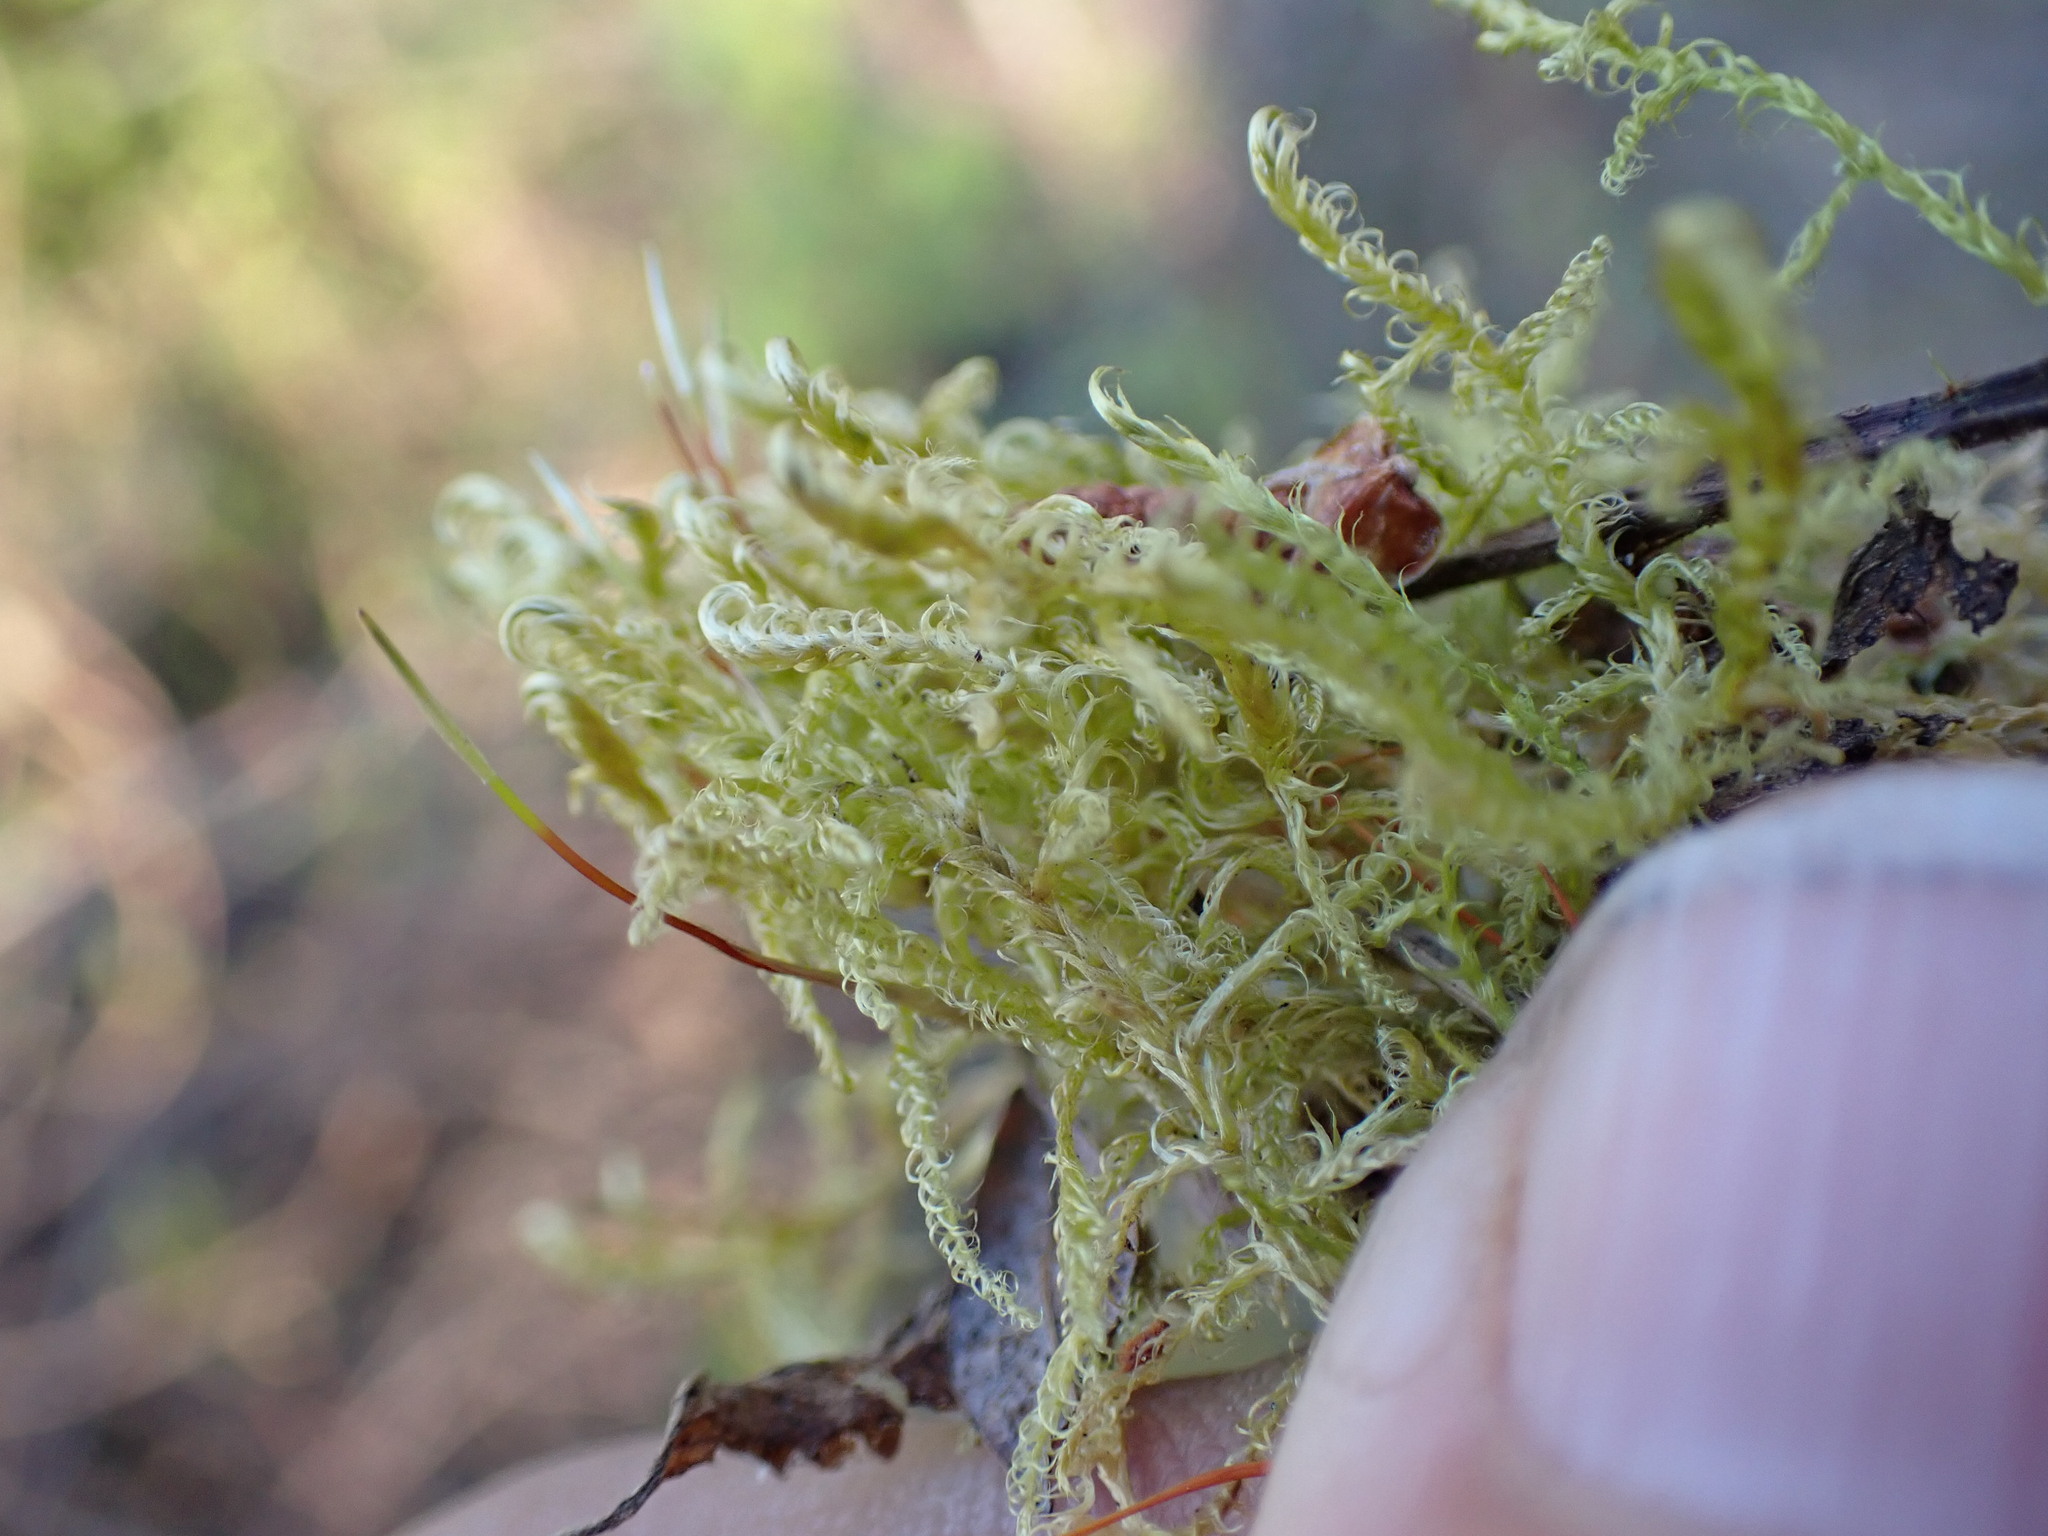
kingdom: Plantae
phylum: Bryophyta
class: Bryopsida
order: Hypnales
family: Scorpidiaceae
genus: Sanionia
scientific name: Sanionia uncinata
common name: Sickle moss
